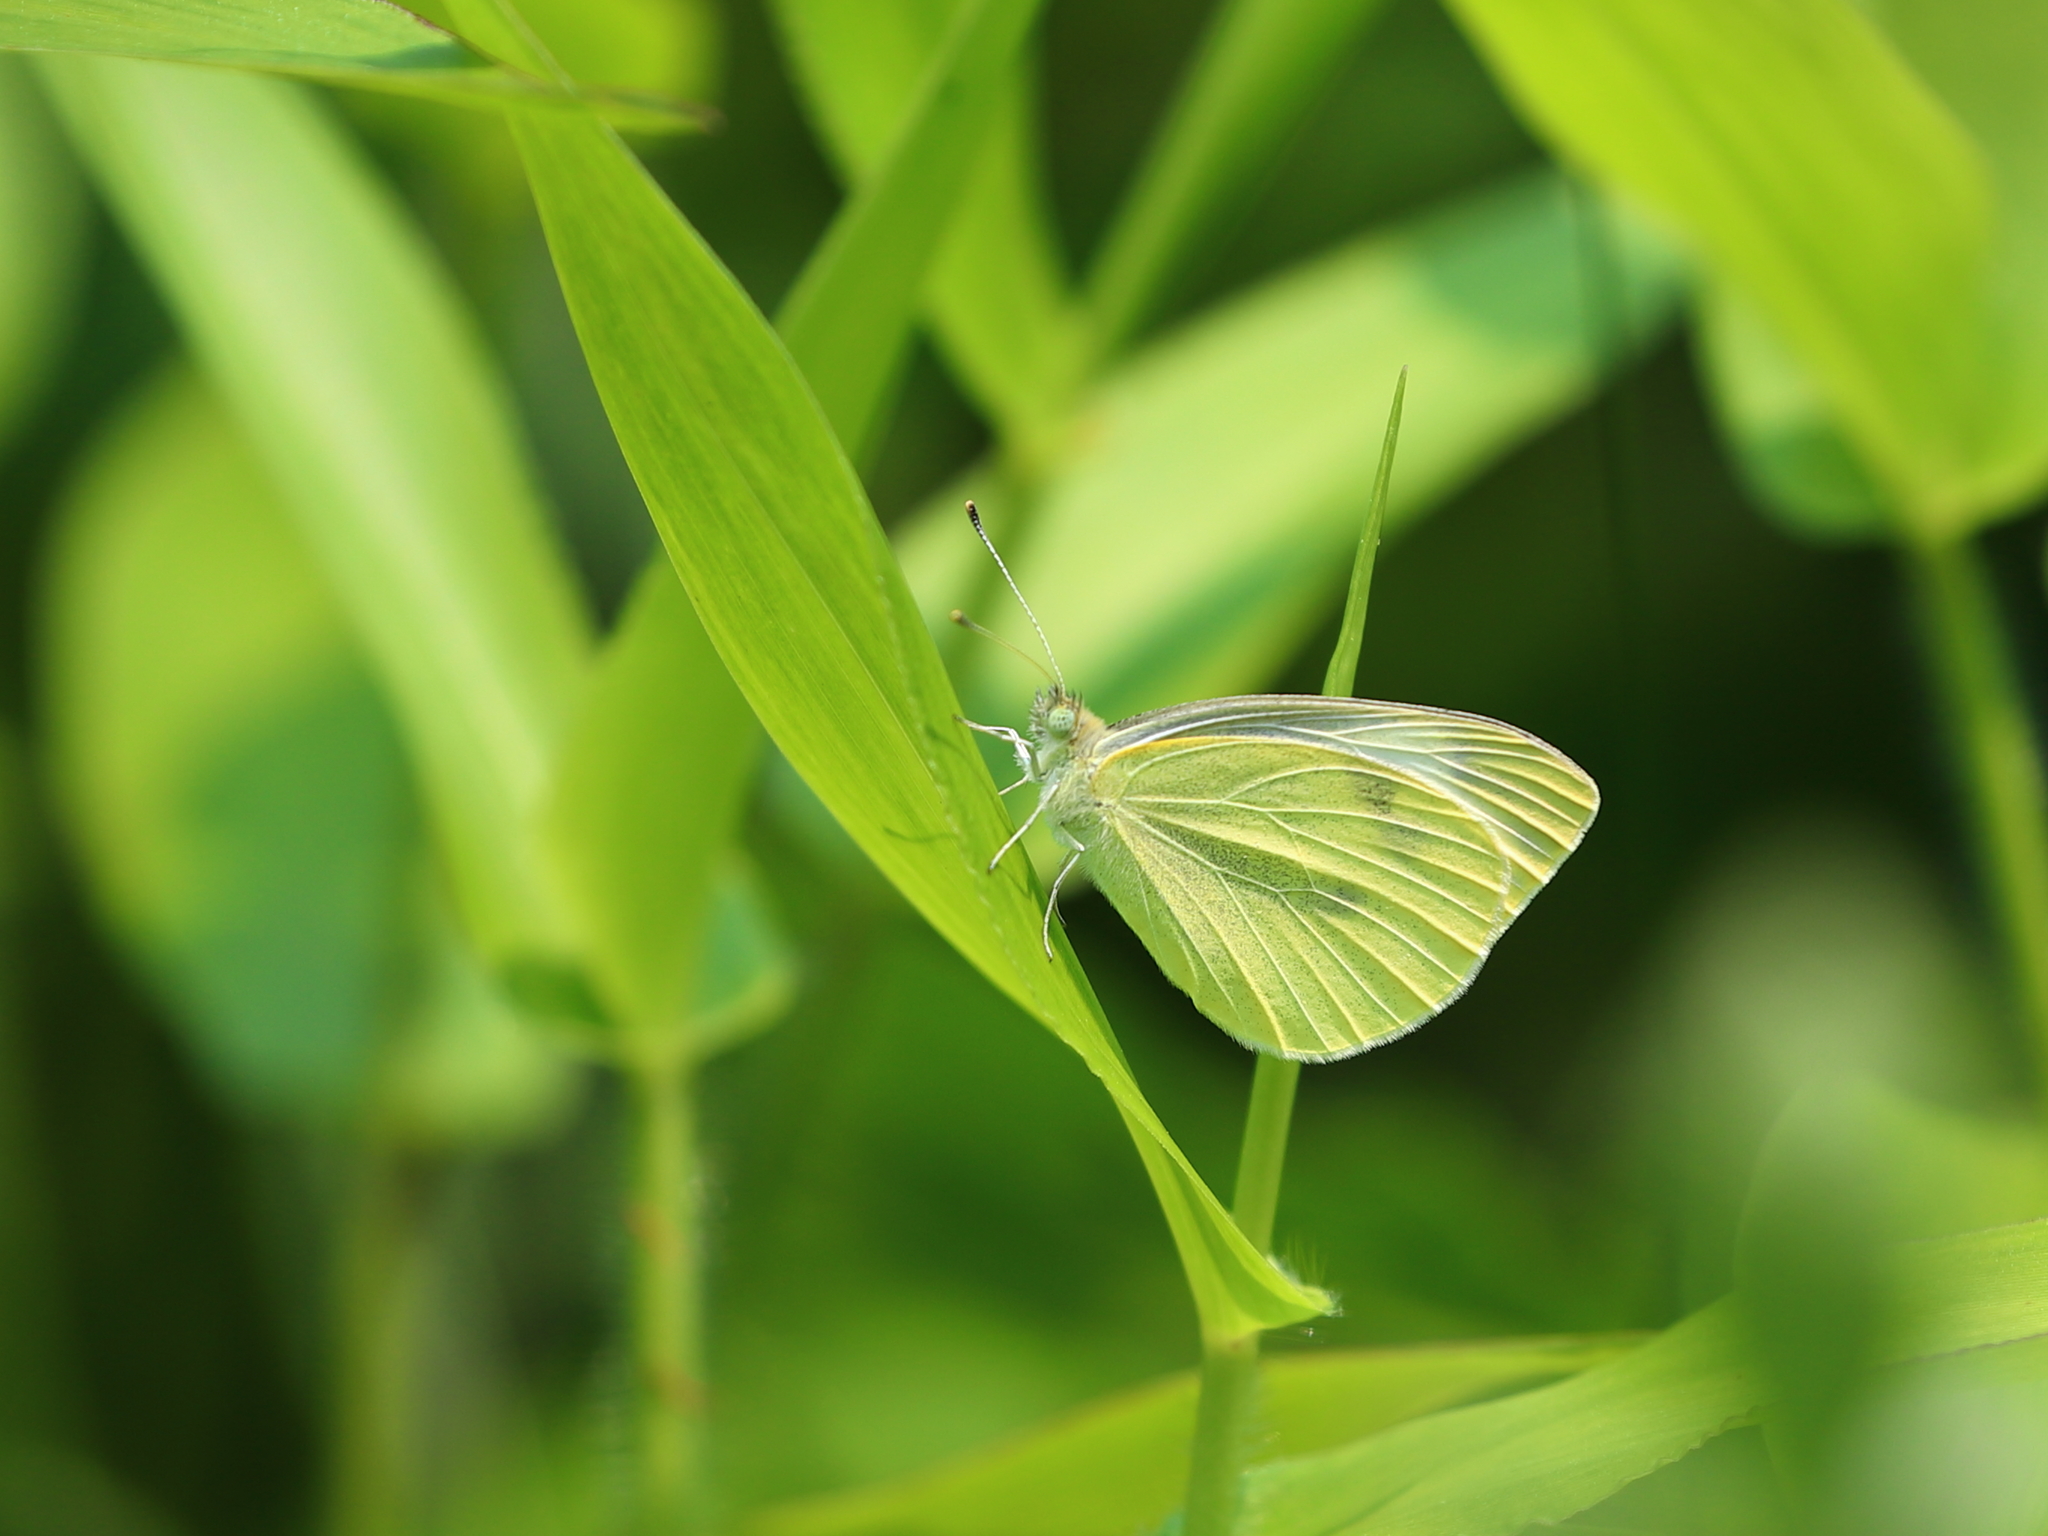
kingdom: Animalia
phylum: Arthropoda
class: Insecta
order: Lepidoptera
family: Pieridae
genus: Pieris
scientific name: Pieris rapae
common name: Small white
